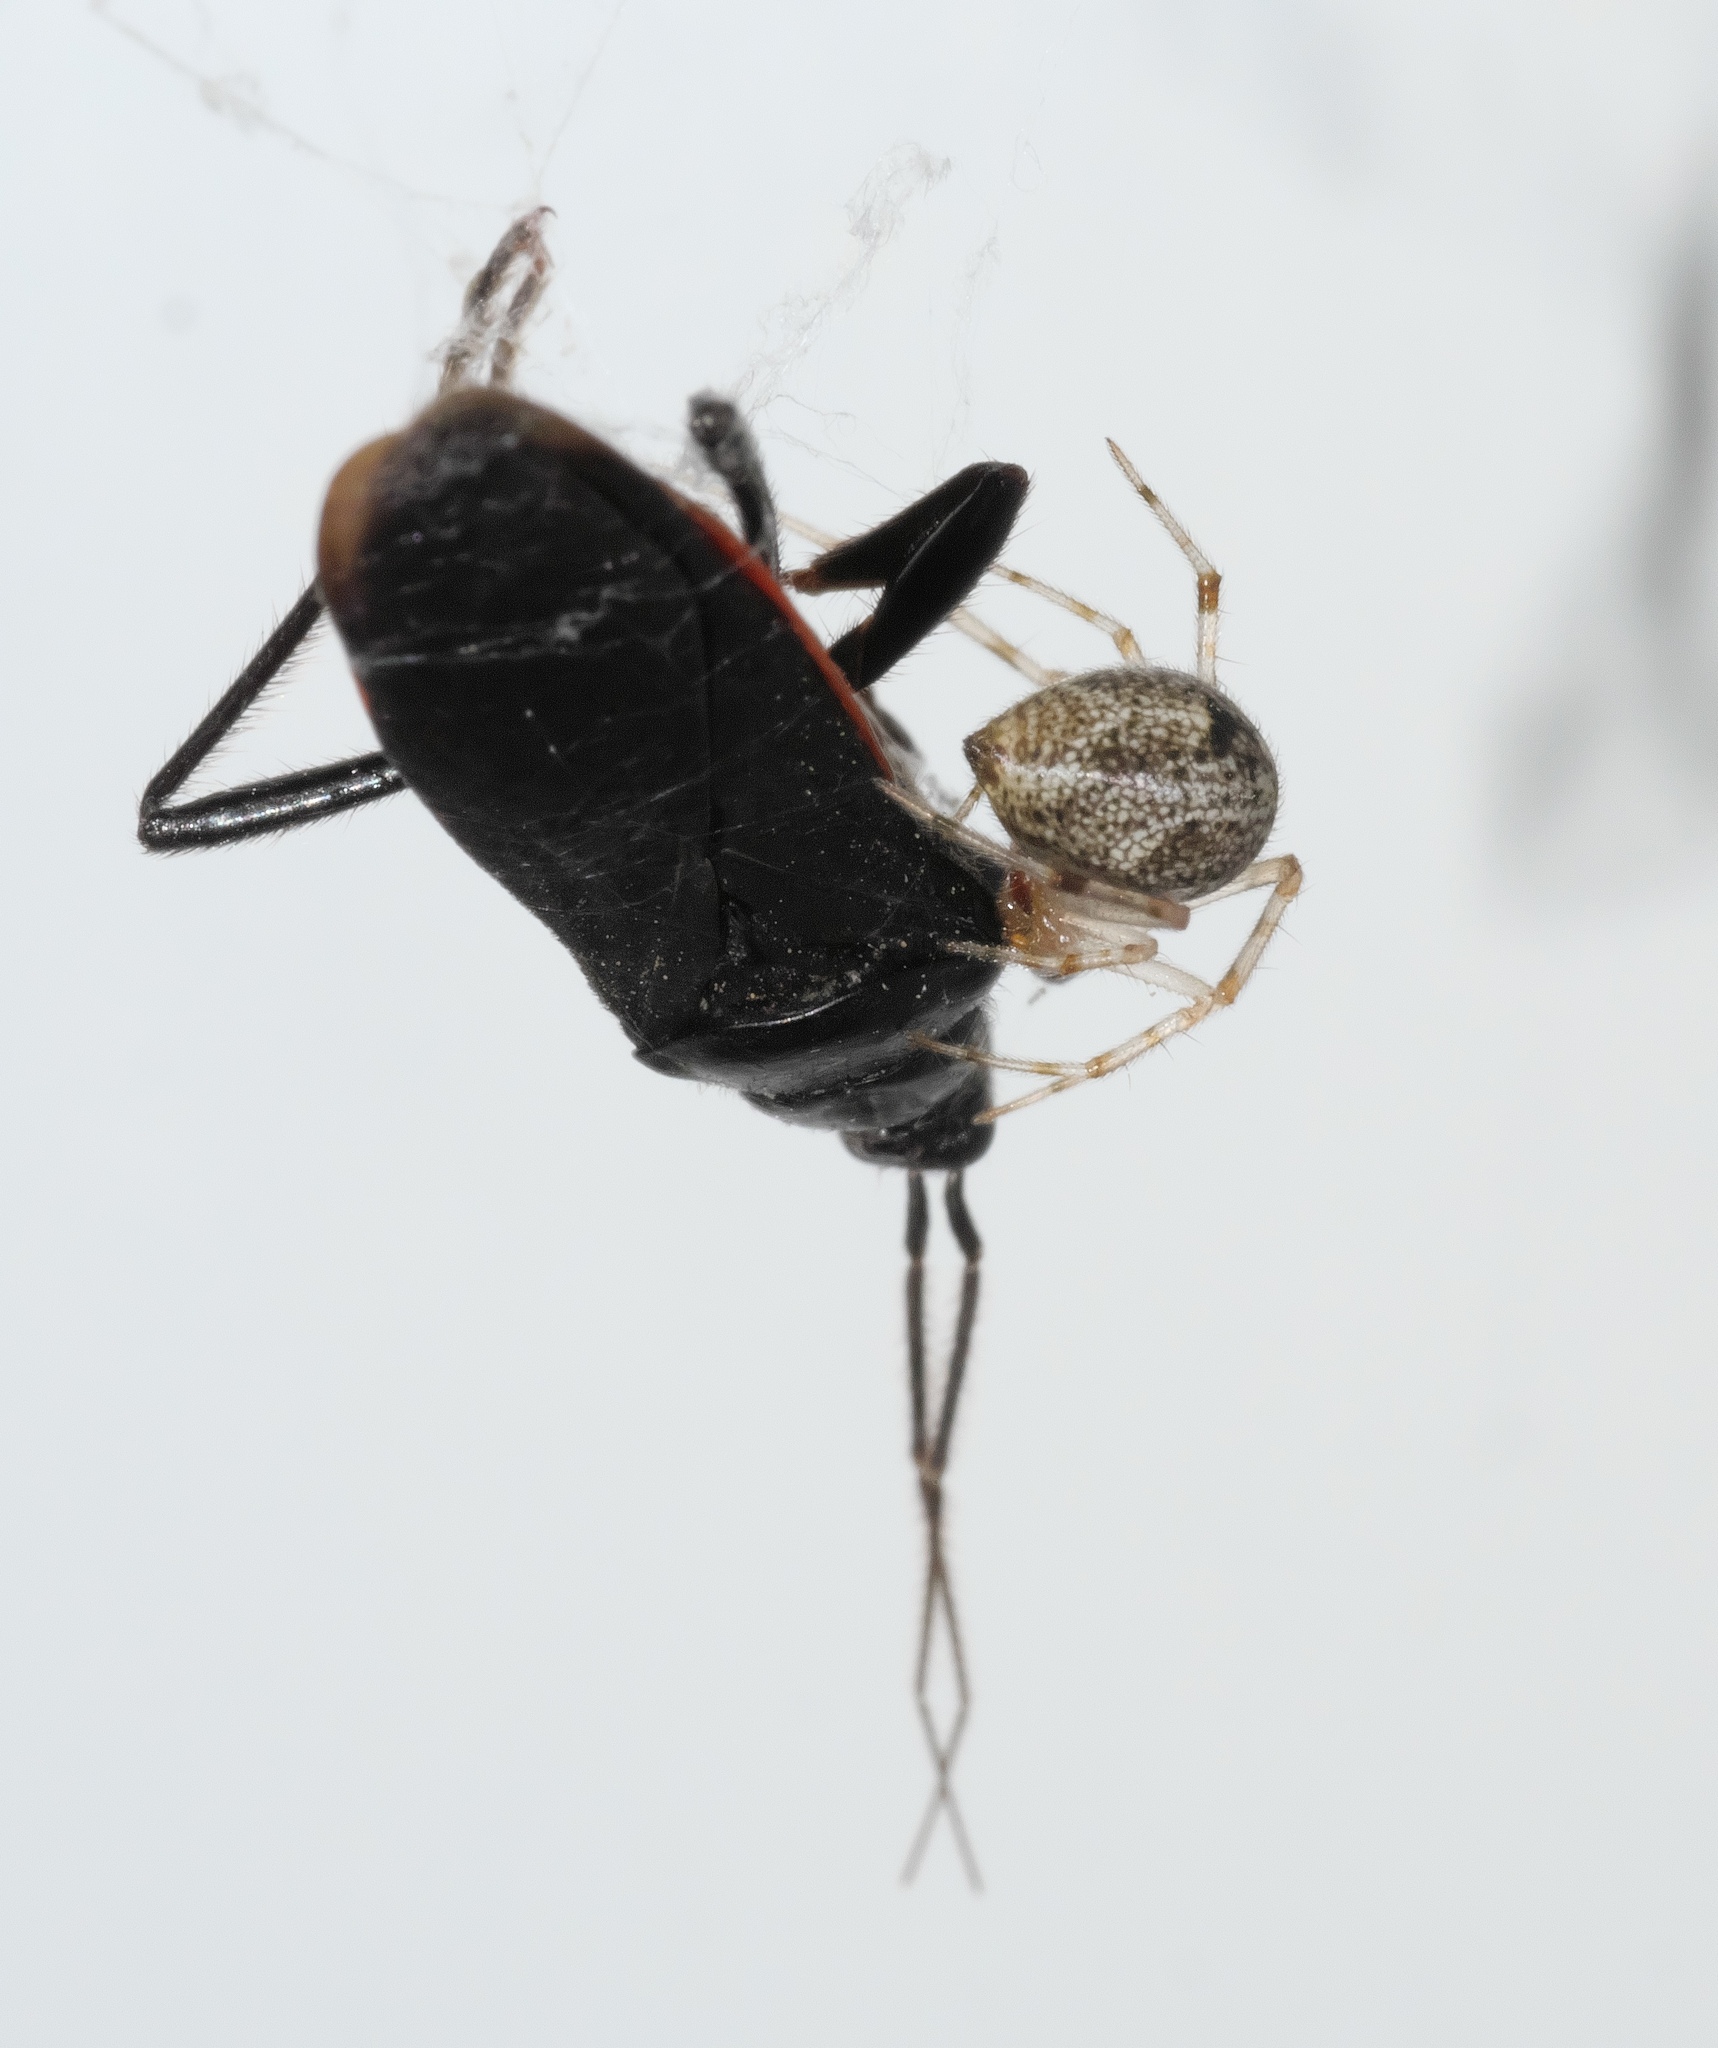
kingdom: Animalia
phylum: Arthropoda
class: Arachnida
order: Araneae
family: Theridiidae
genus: Parasteatoda
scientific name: Parasteatoda tepidariorum
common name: Common house spider
